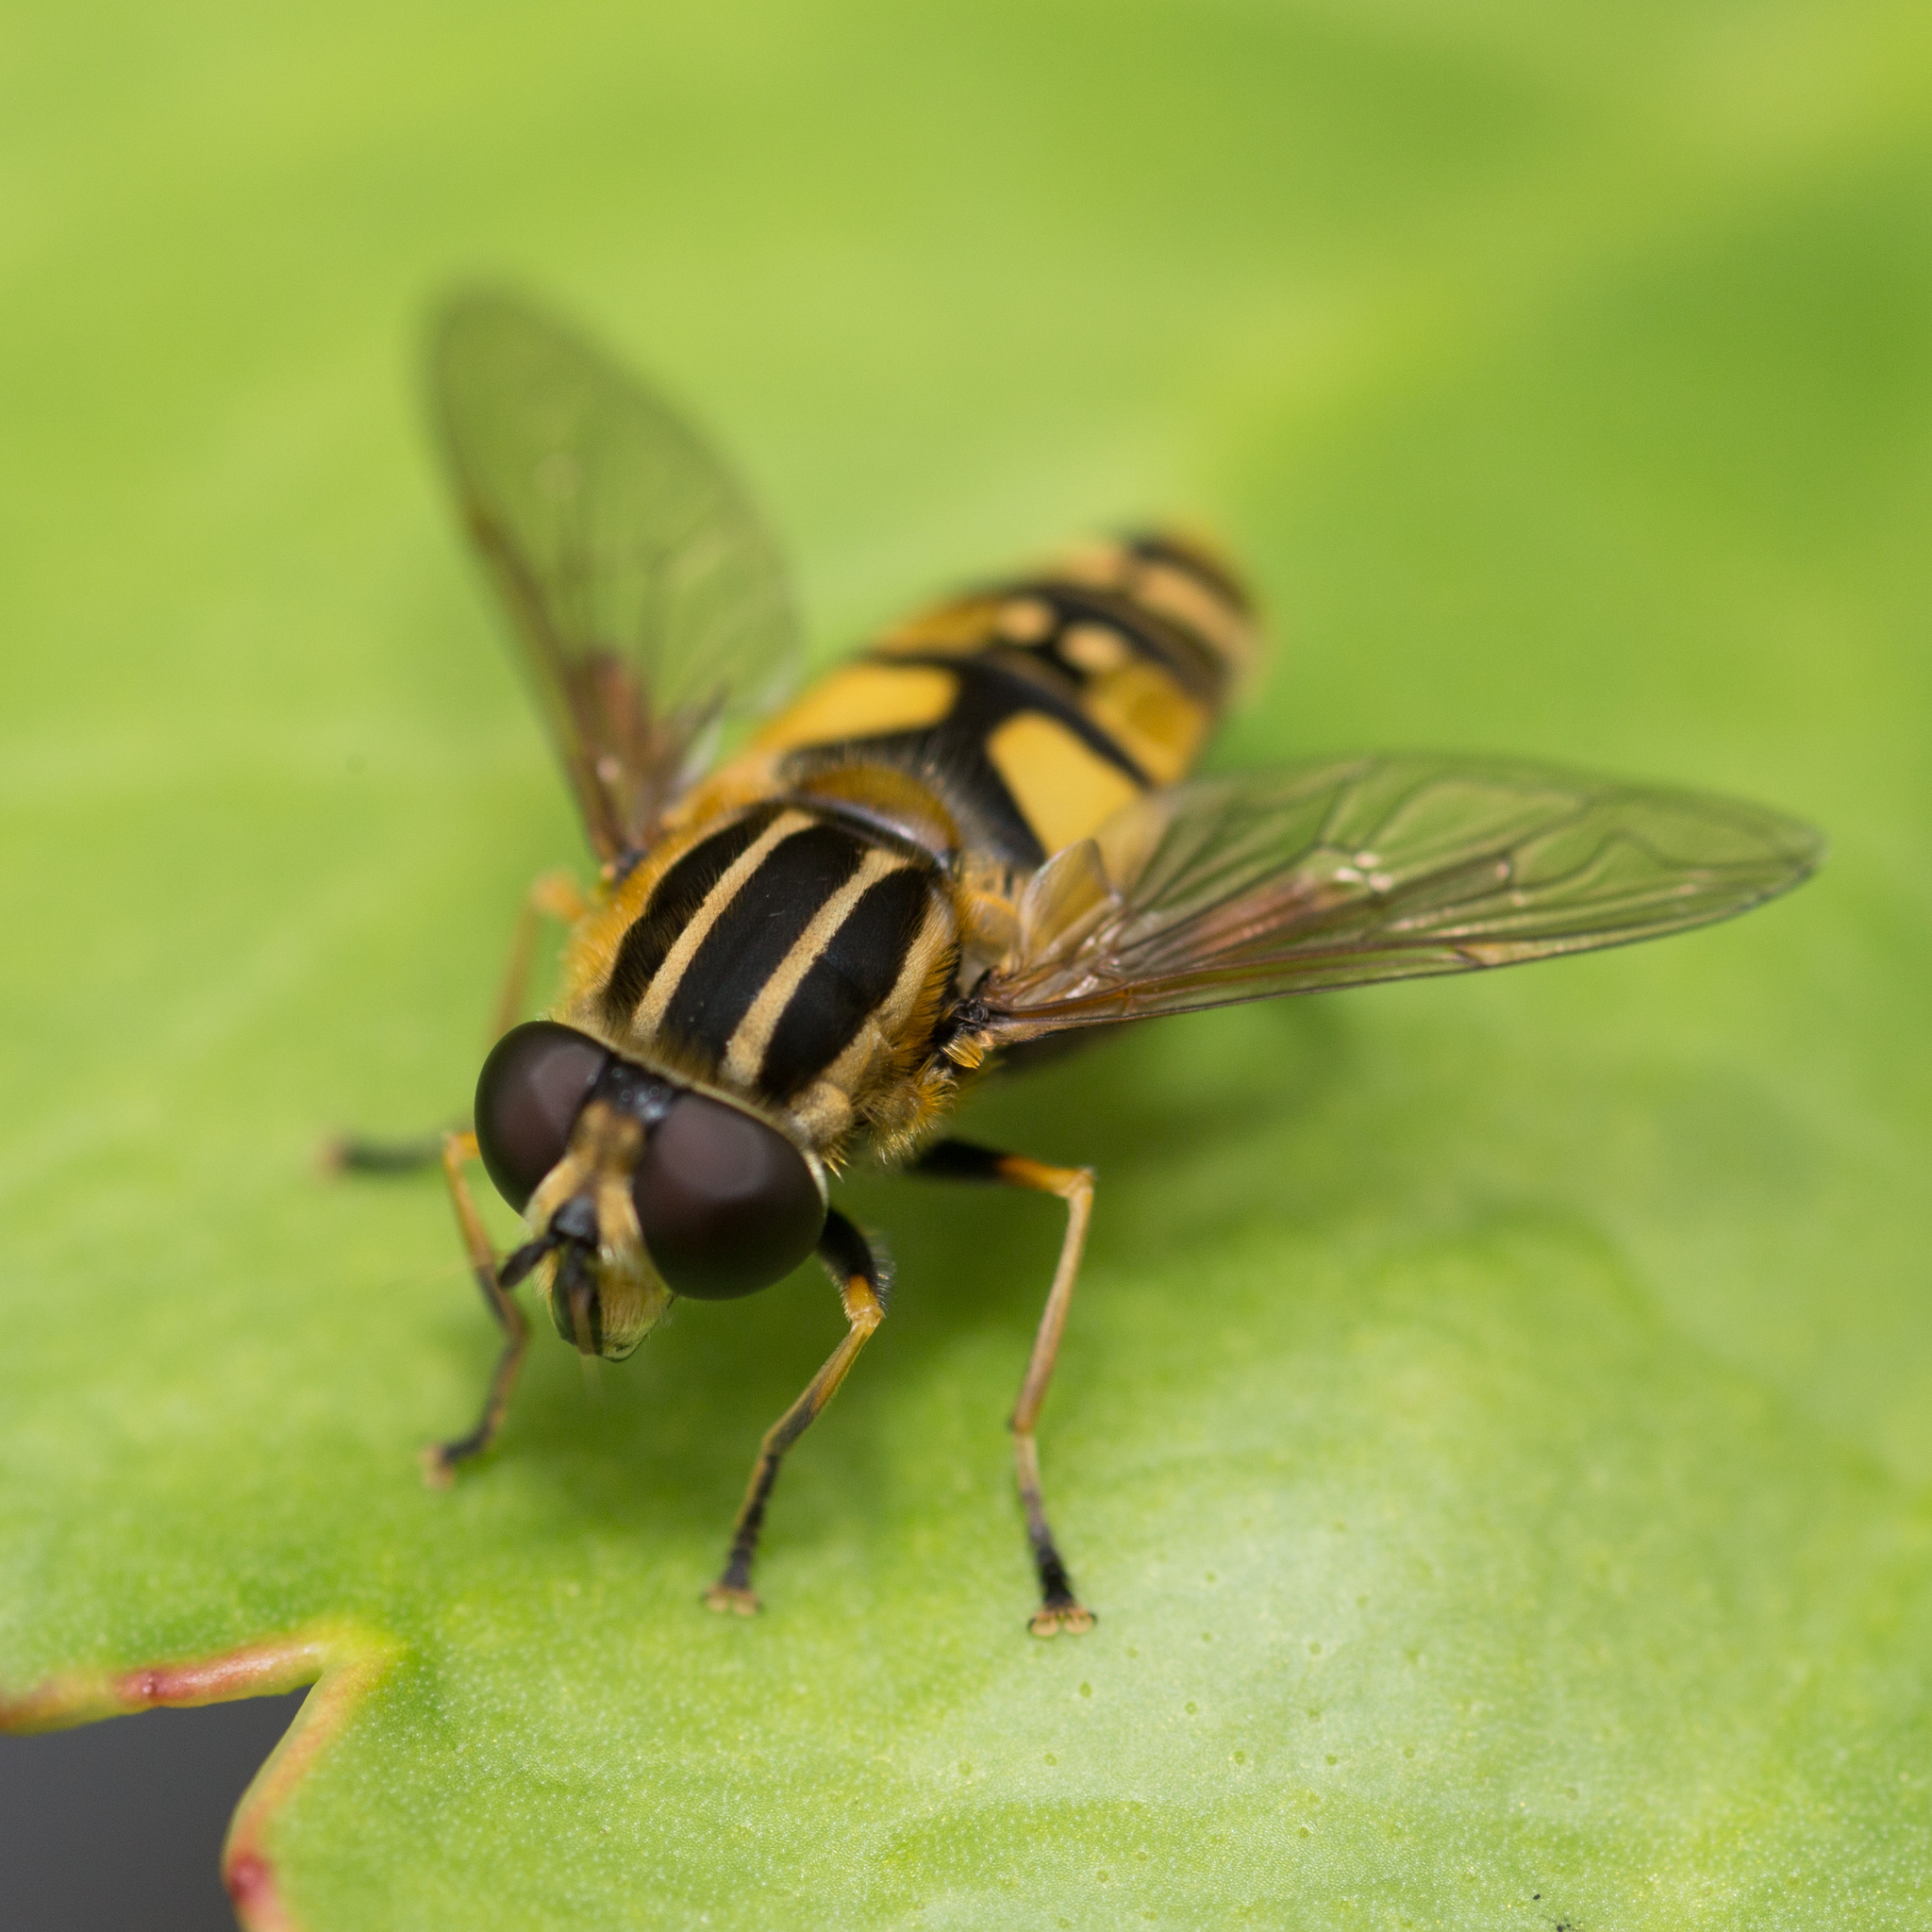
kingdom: Animalia
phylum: Arthropoda
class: Insecta
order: Diptera
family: Syrphidae
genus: Helophilus
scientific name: Helophilus pendulus
